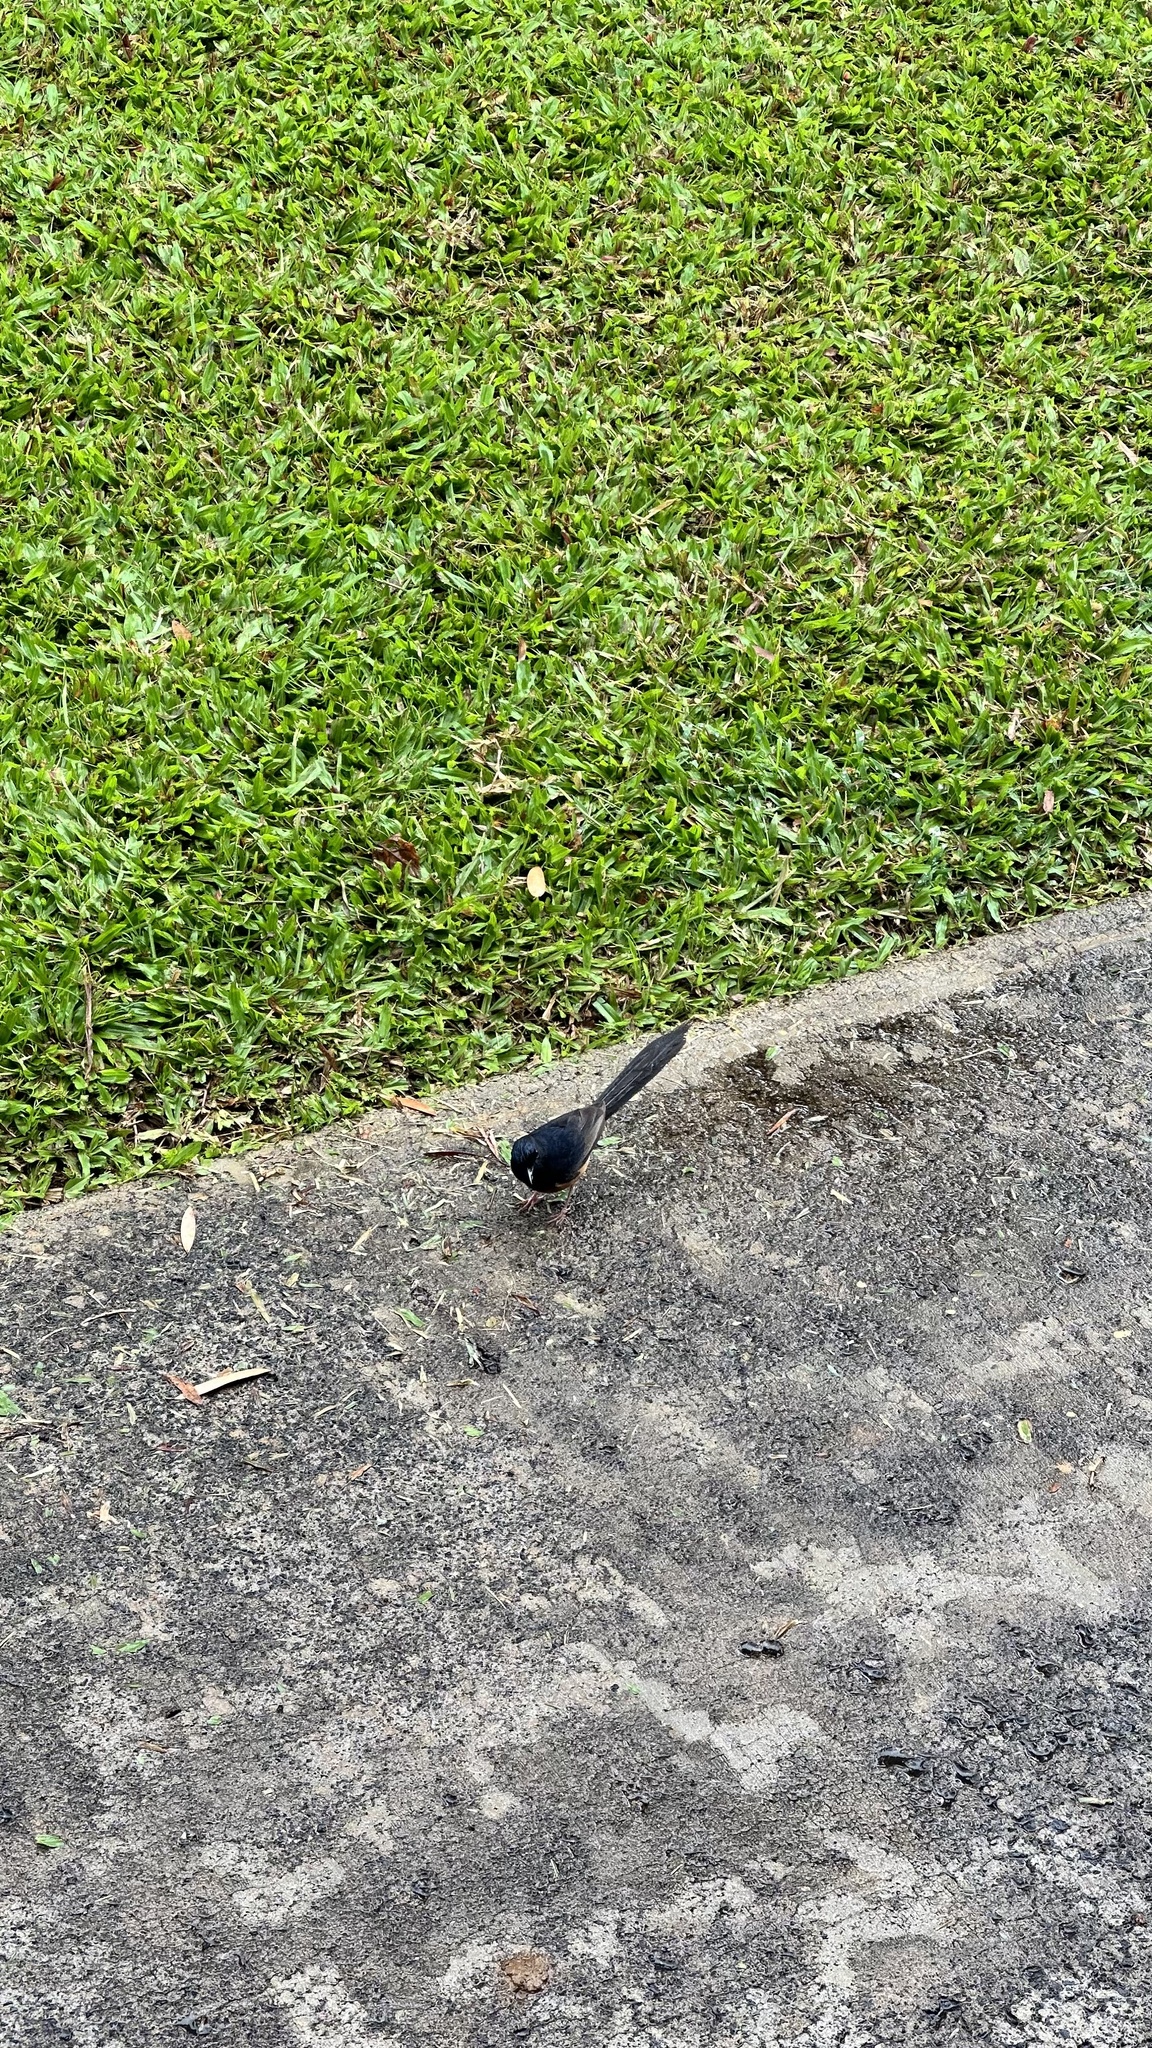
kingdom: Animalia
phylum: Chordata
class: Aves
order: Passeriformes
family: Muscicapidae
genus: Copsychus
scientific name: Copsychus malabaricus
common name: White-rumped shama
